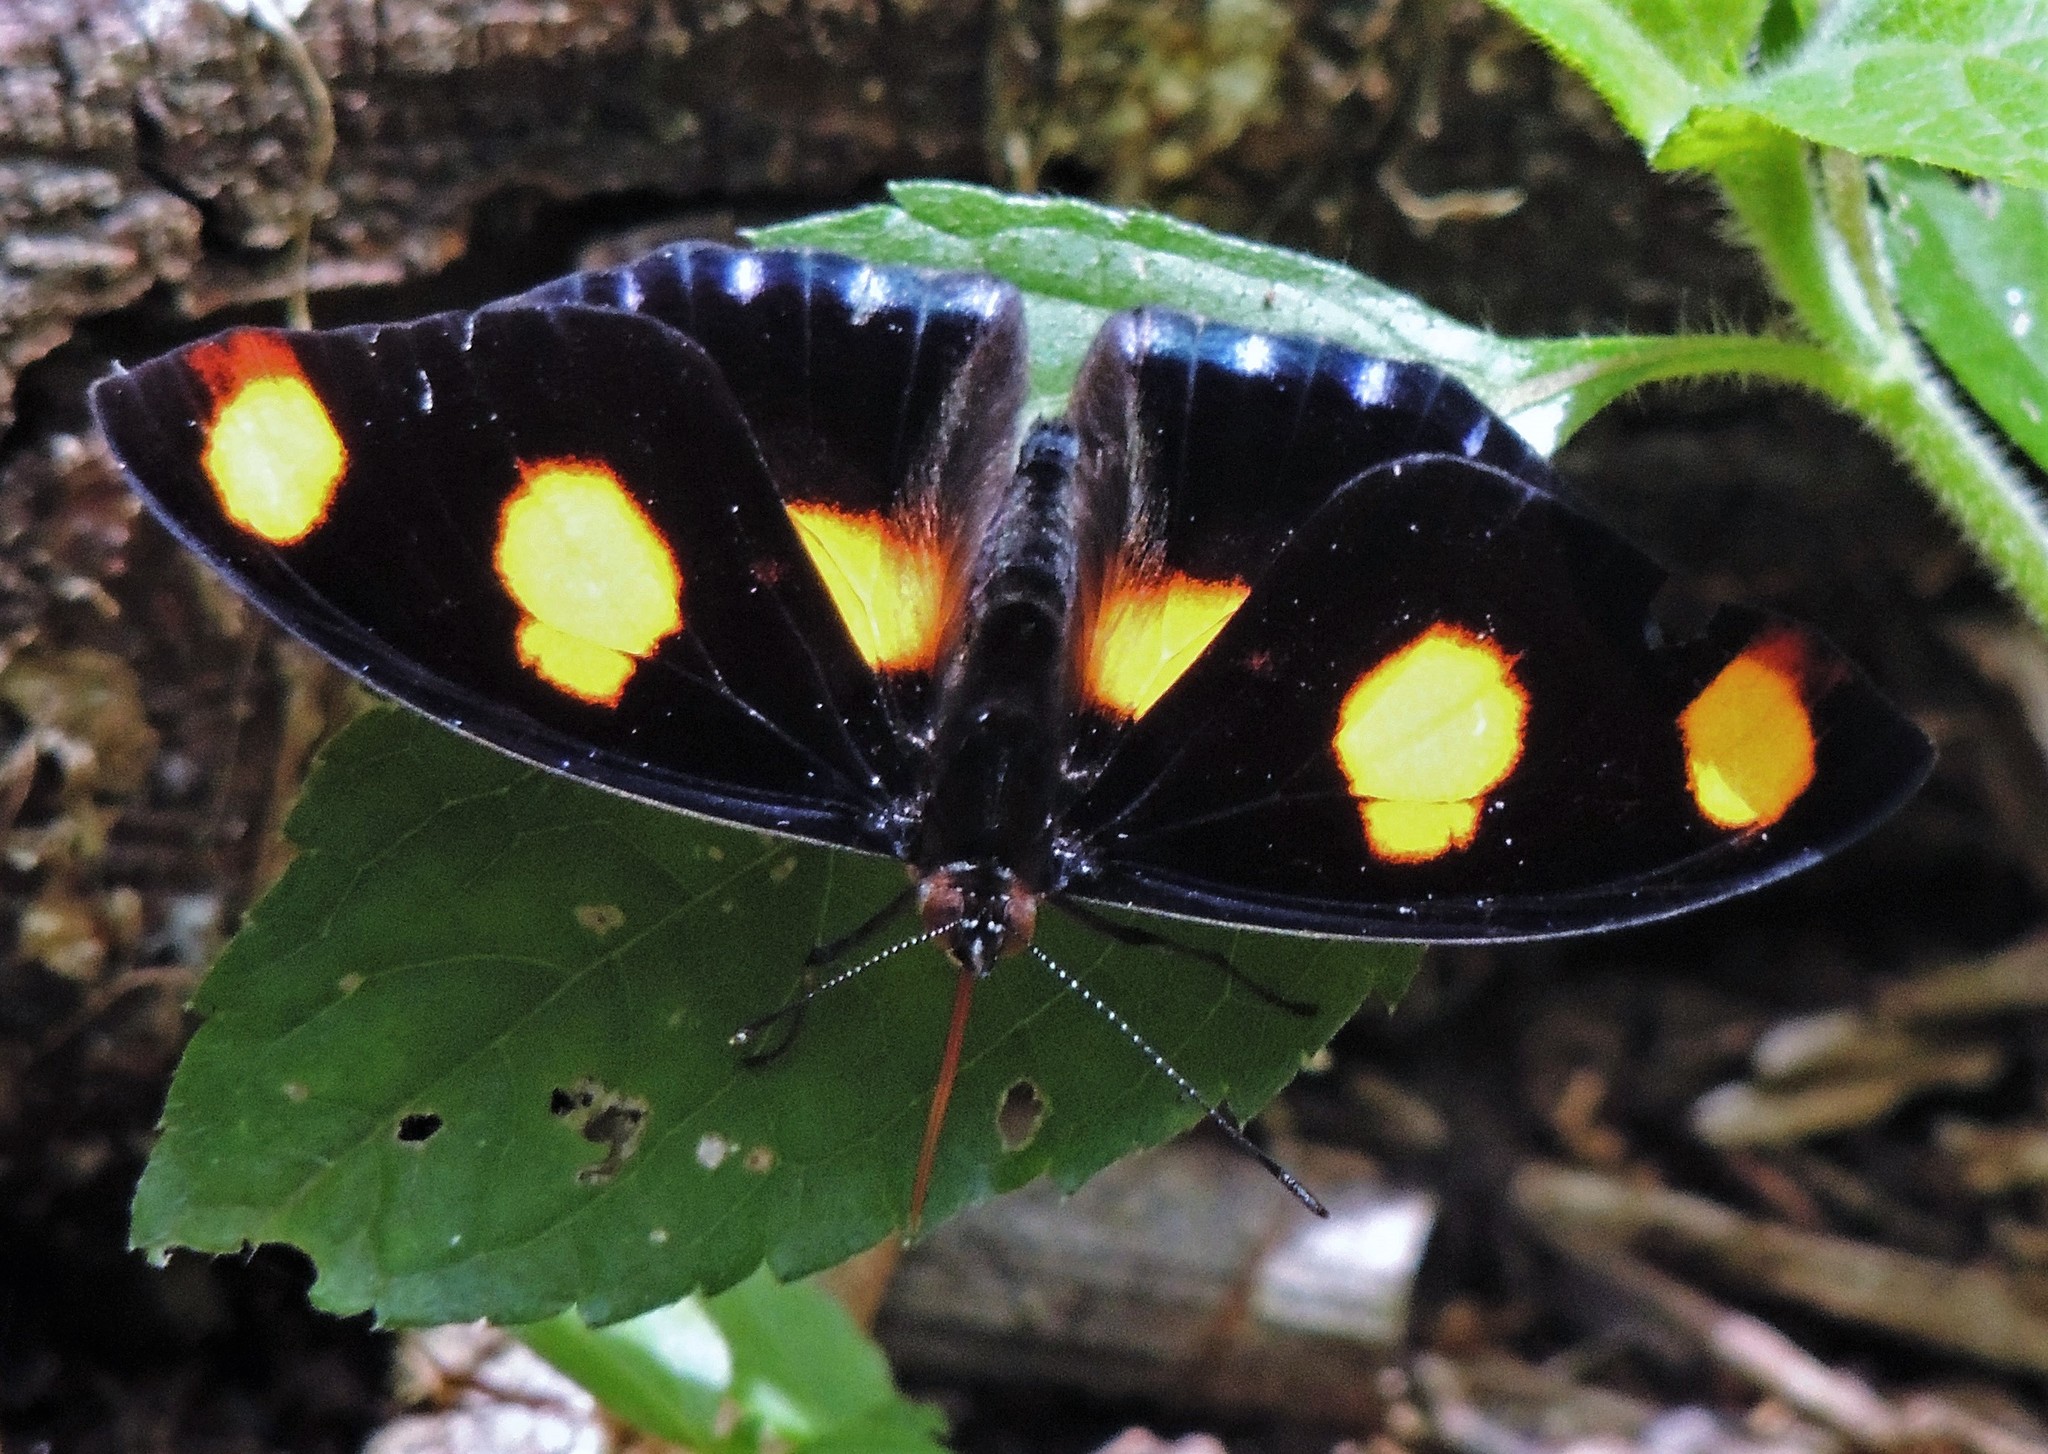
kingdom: Animalia
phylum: Arthropoda
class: Insecta
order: Lepidoptera
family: Nymphalidae
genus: Catonephele
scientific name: Catonephele numilia
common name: Blue-frosted banner
